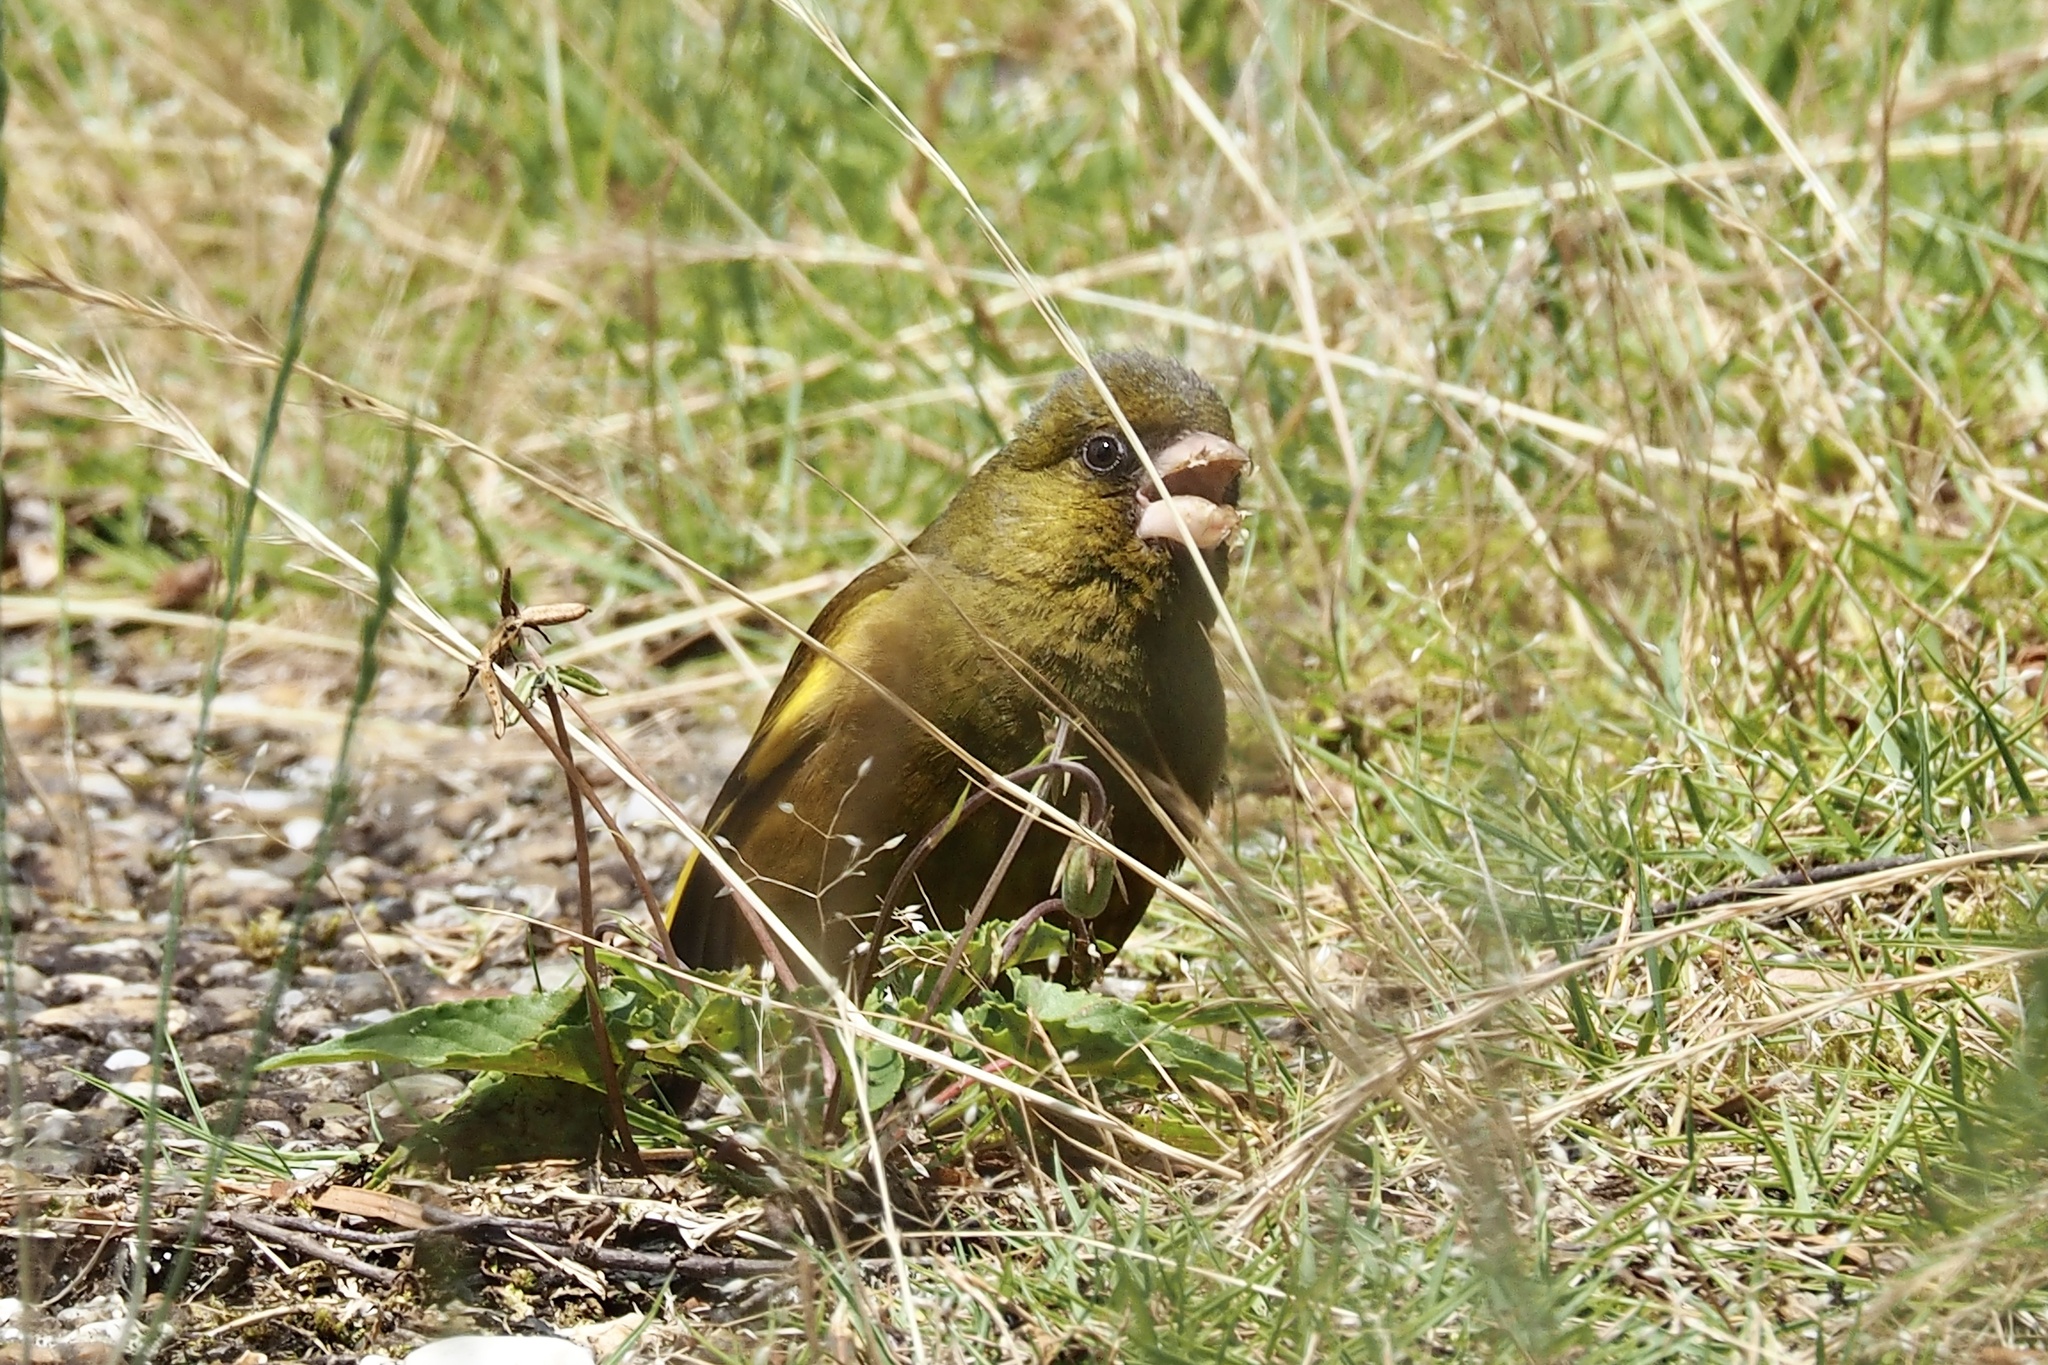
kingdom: Plantae
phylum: Tracheophyta
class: Liliopsida
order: Poales
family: Poaceae
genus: Chloris
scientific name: Chloris sinica
